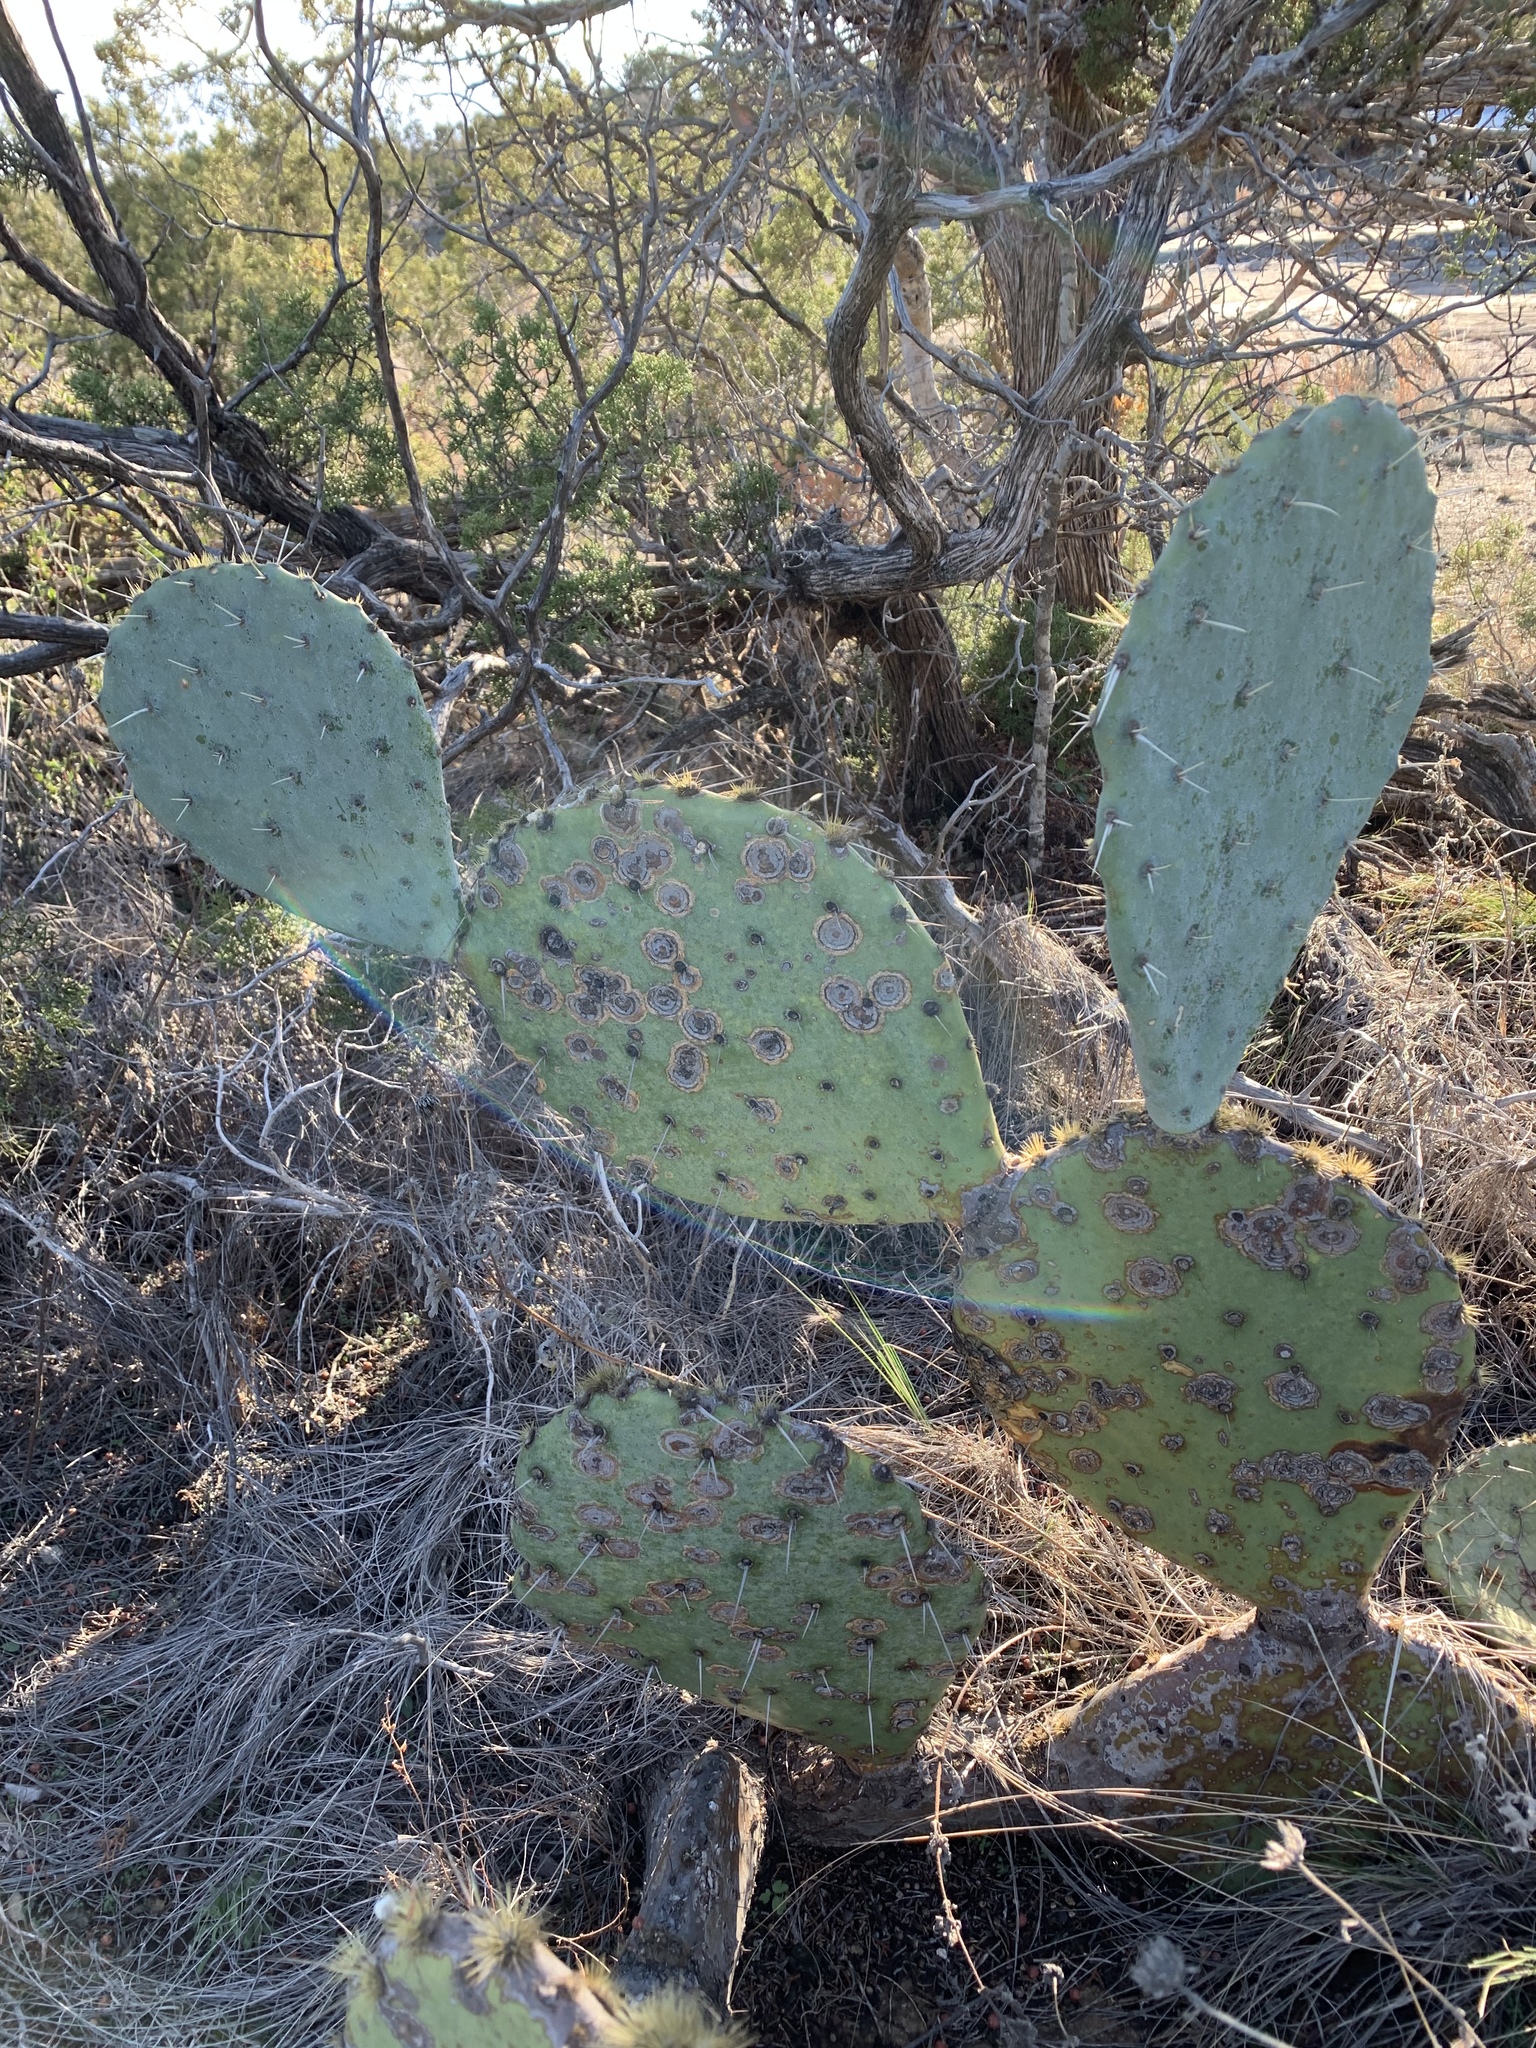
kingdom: Plantae
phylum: Tracheophyta
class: Magnoliopsida
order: Caryophyllales
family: Cactaceae
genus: Opuntia
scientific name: Opuntia engelmannii
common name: Cactus-apple
